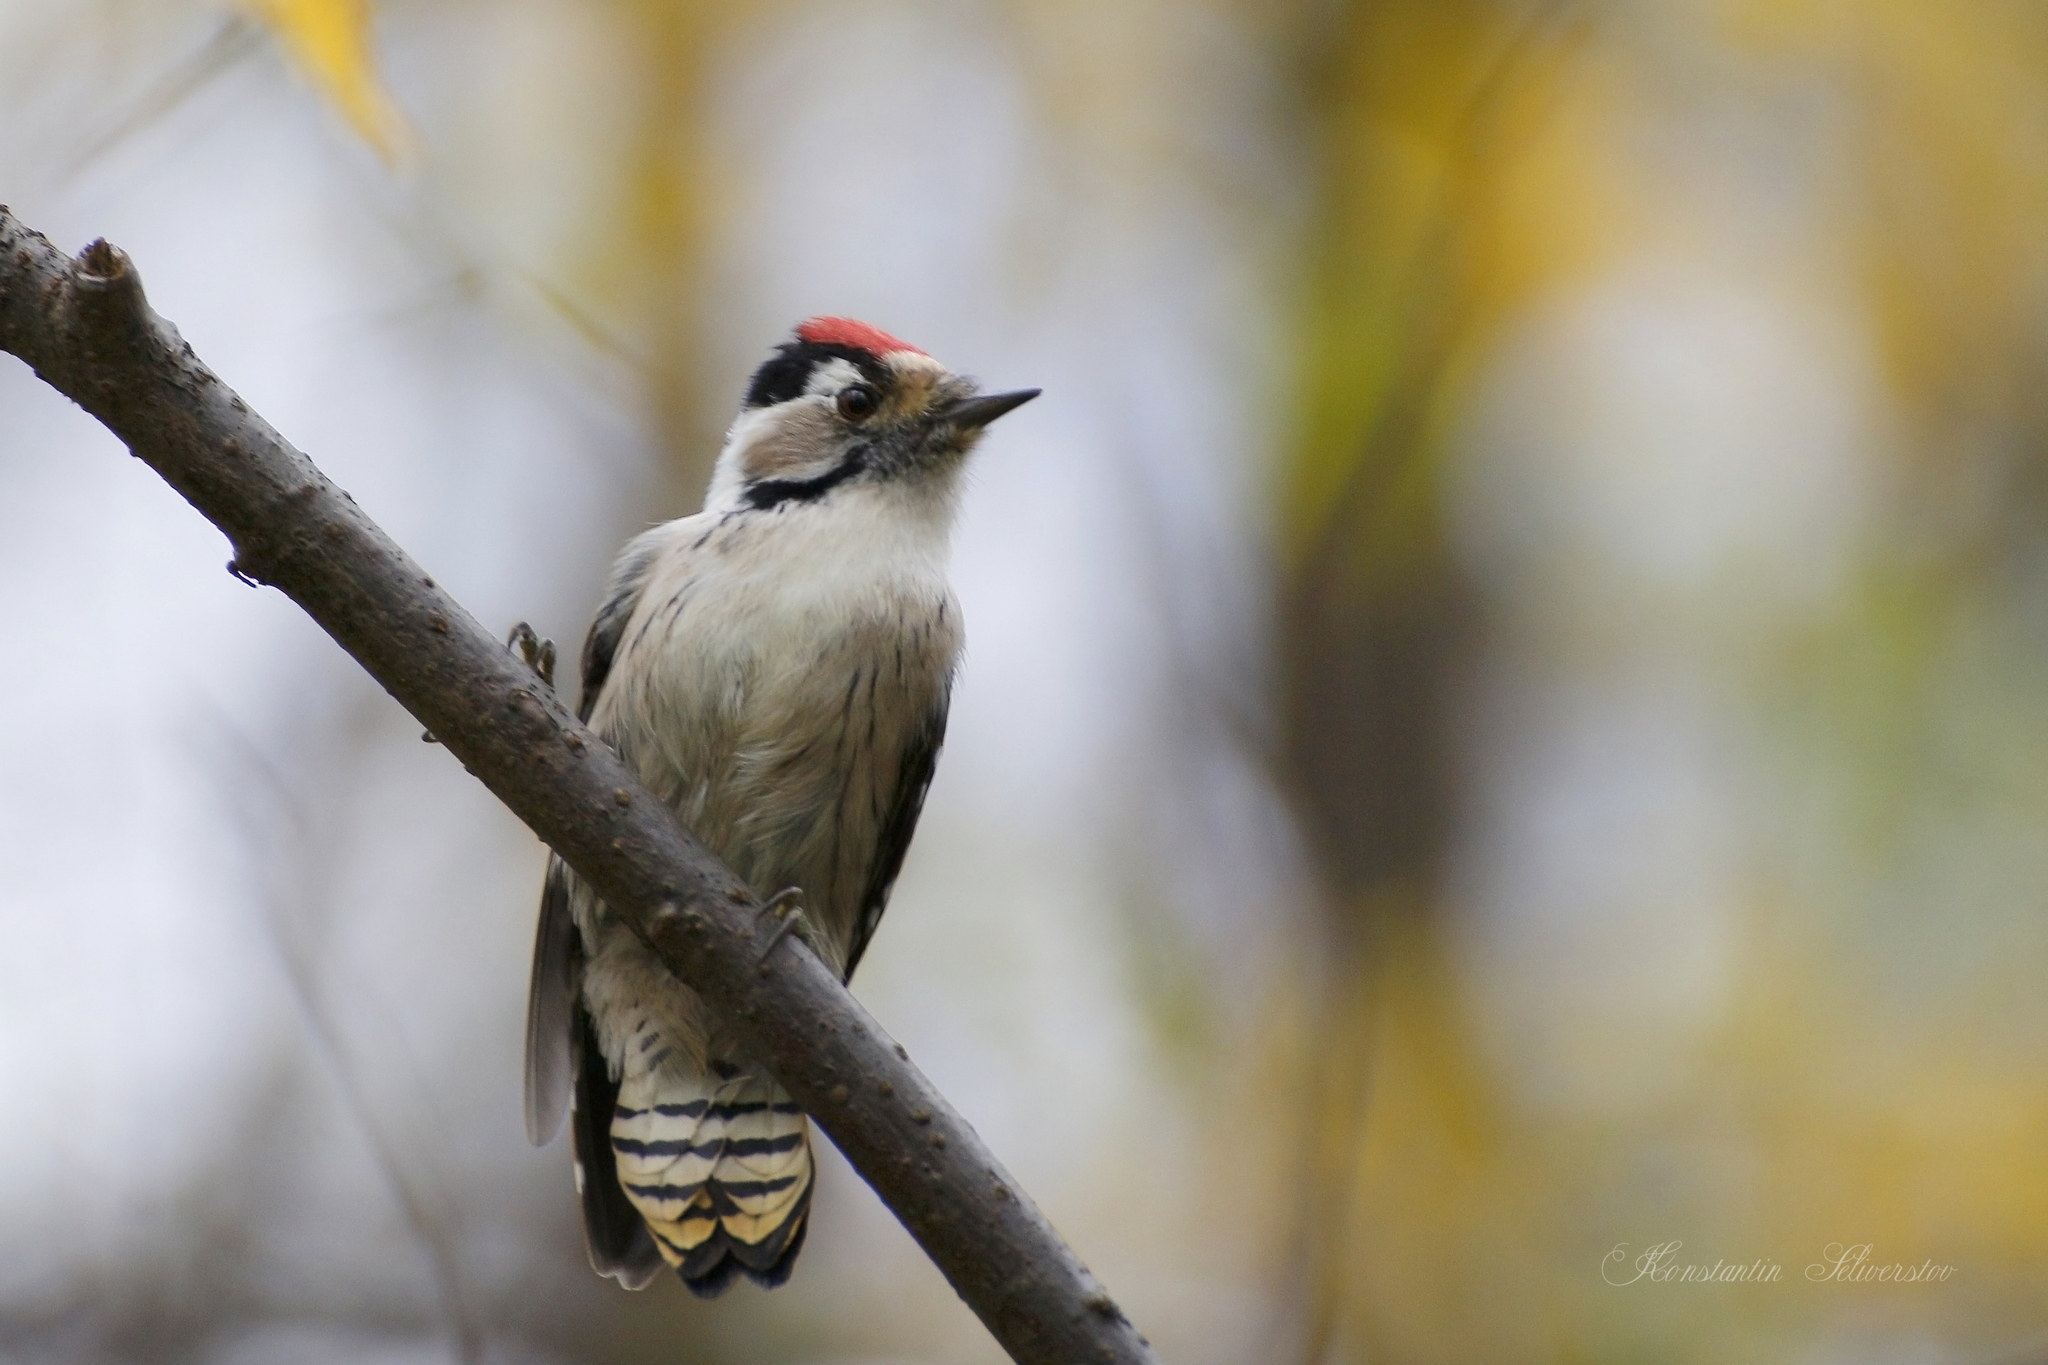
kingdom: Animalia
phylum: Chordata
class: Aves
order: Piciformes
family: Picidae
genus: Dryobates
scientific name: Dryobates minor
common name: Lesser spotted woodpecker
